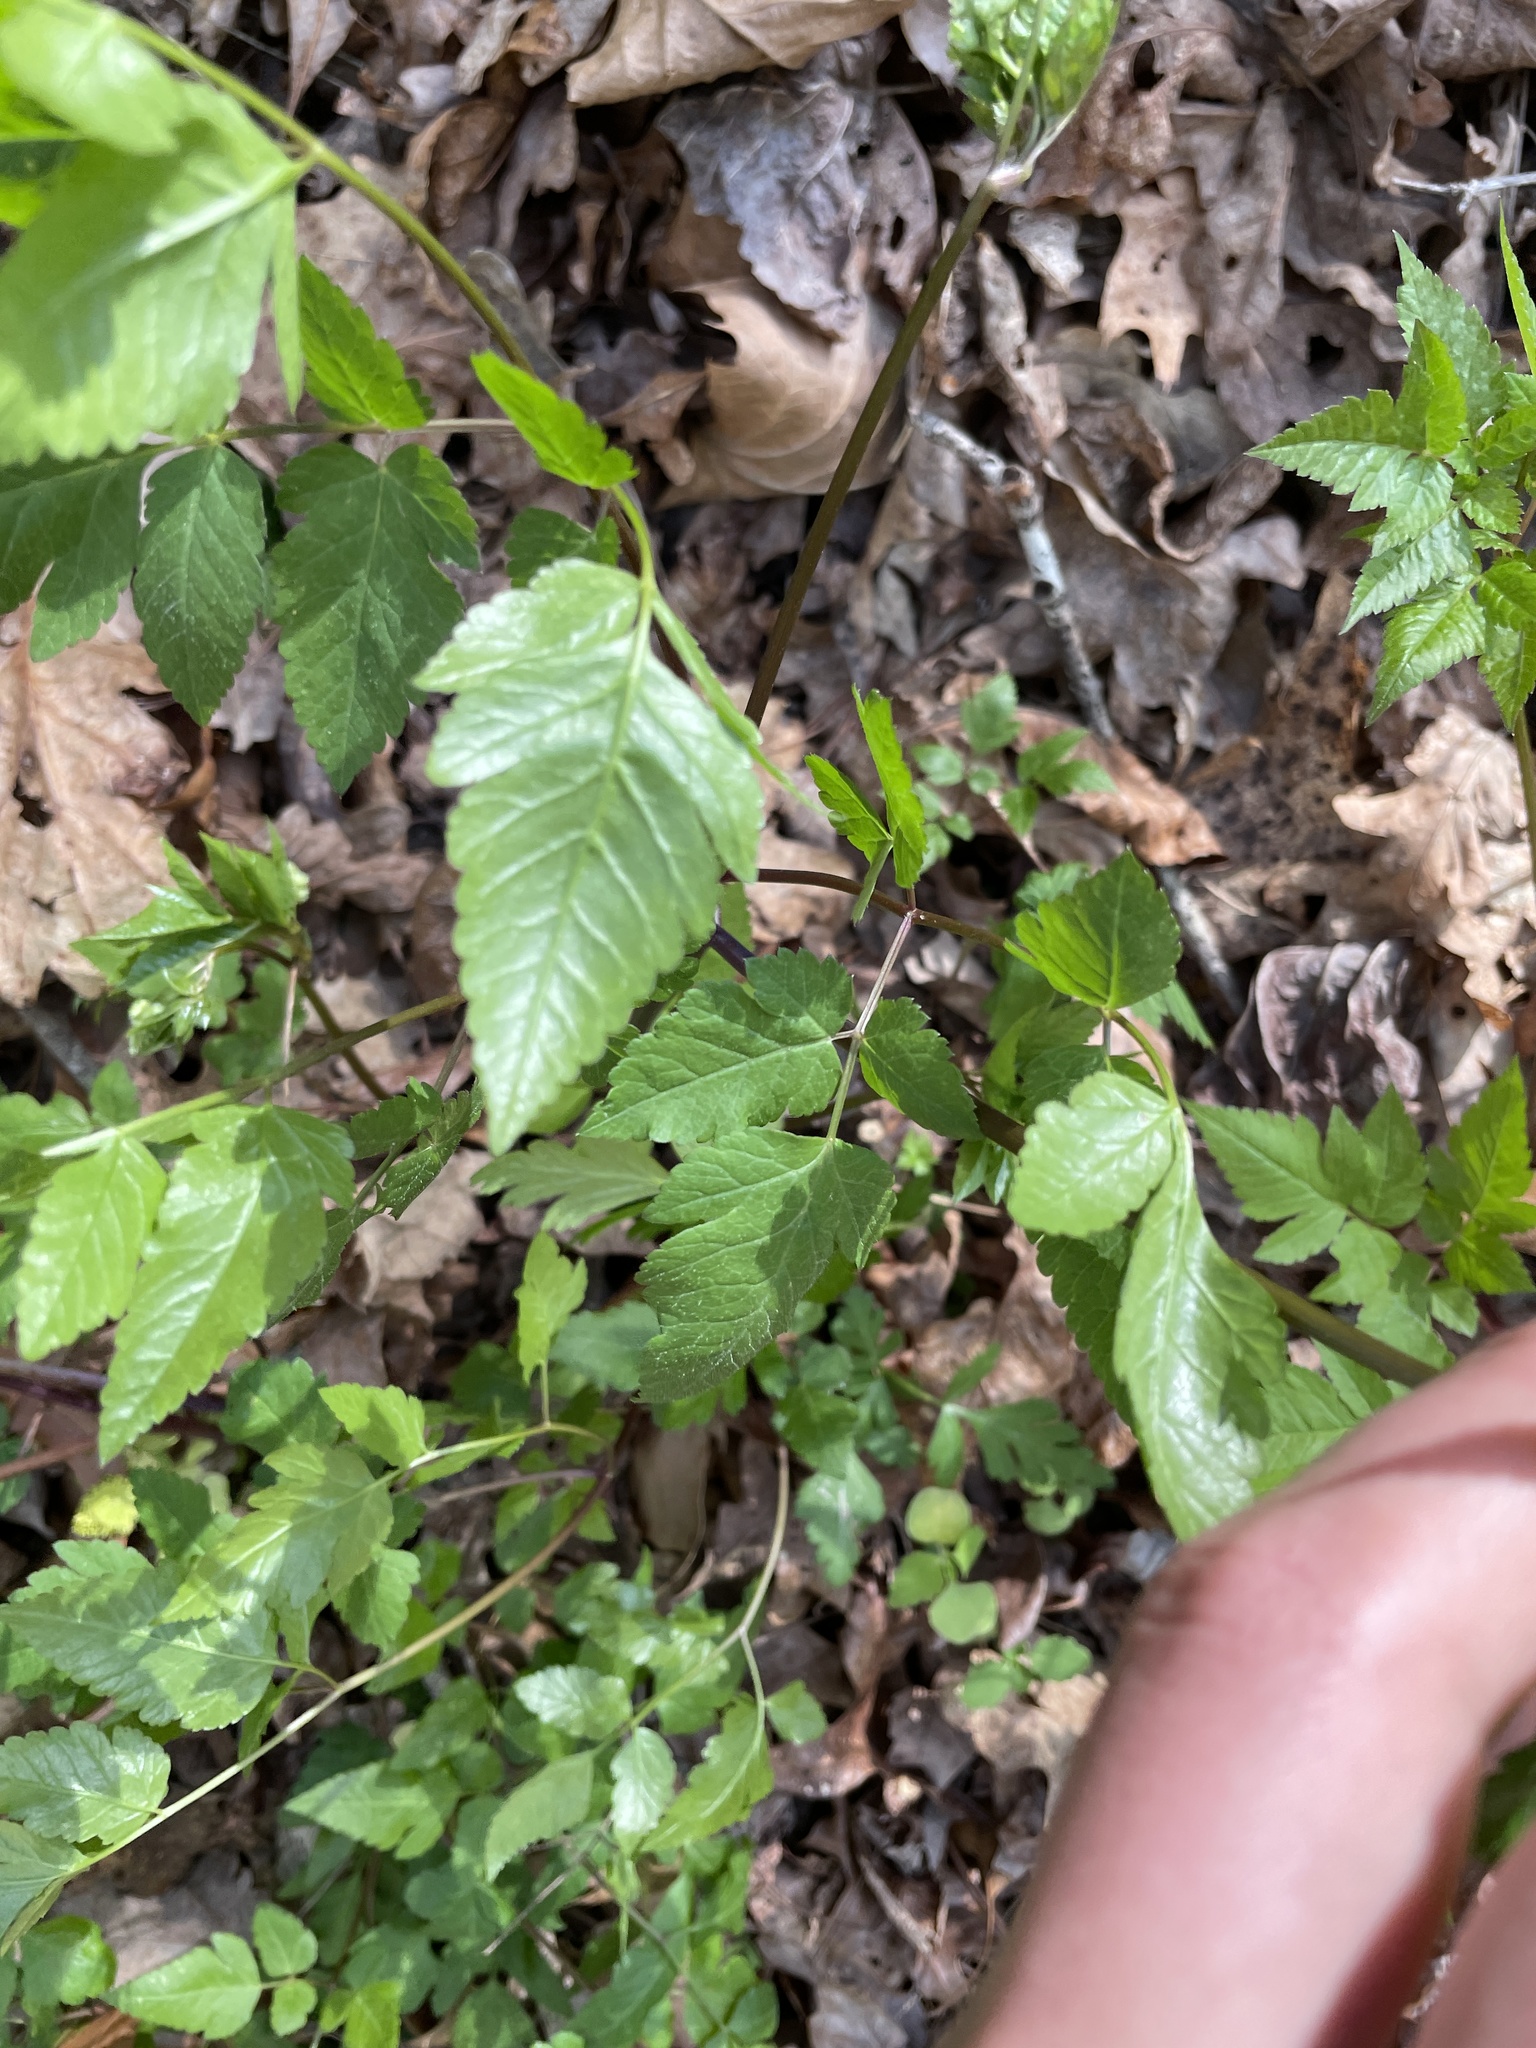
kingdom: Plantae
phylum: Tracheophyta
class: Magnoliopsida
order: Apiales
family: Apiaceae
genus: Osmorhiza
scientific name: Osmorhiza longistylis
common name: Smooth sweet cicely
